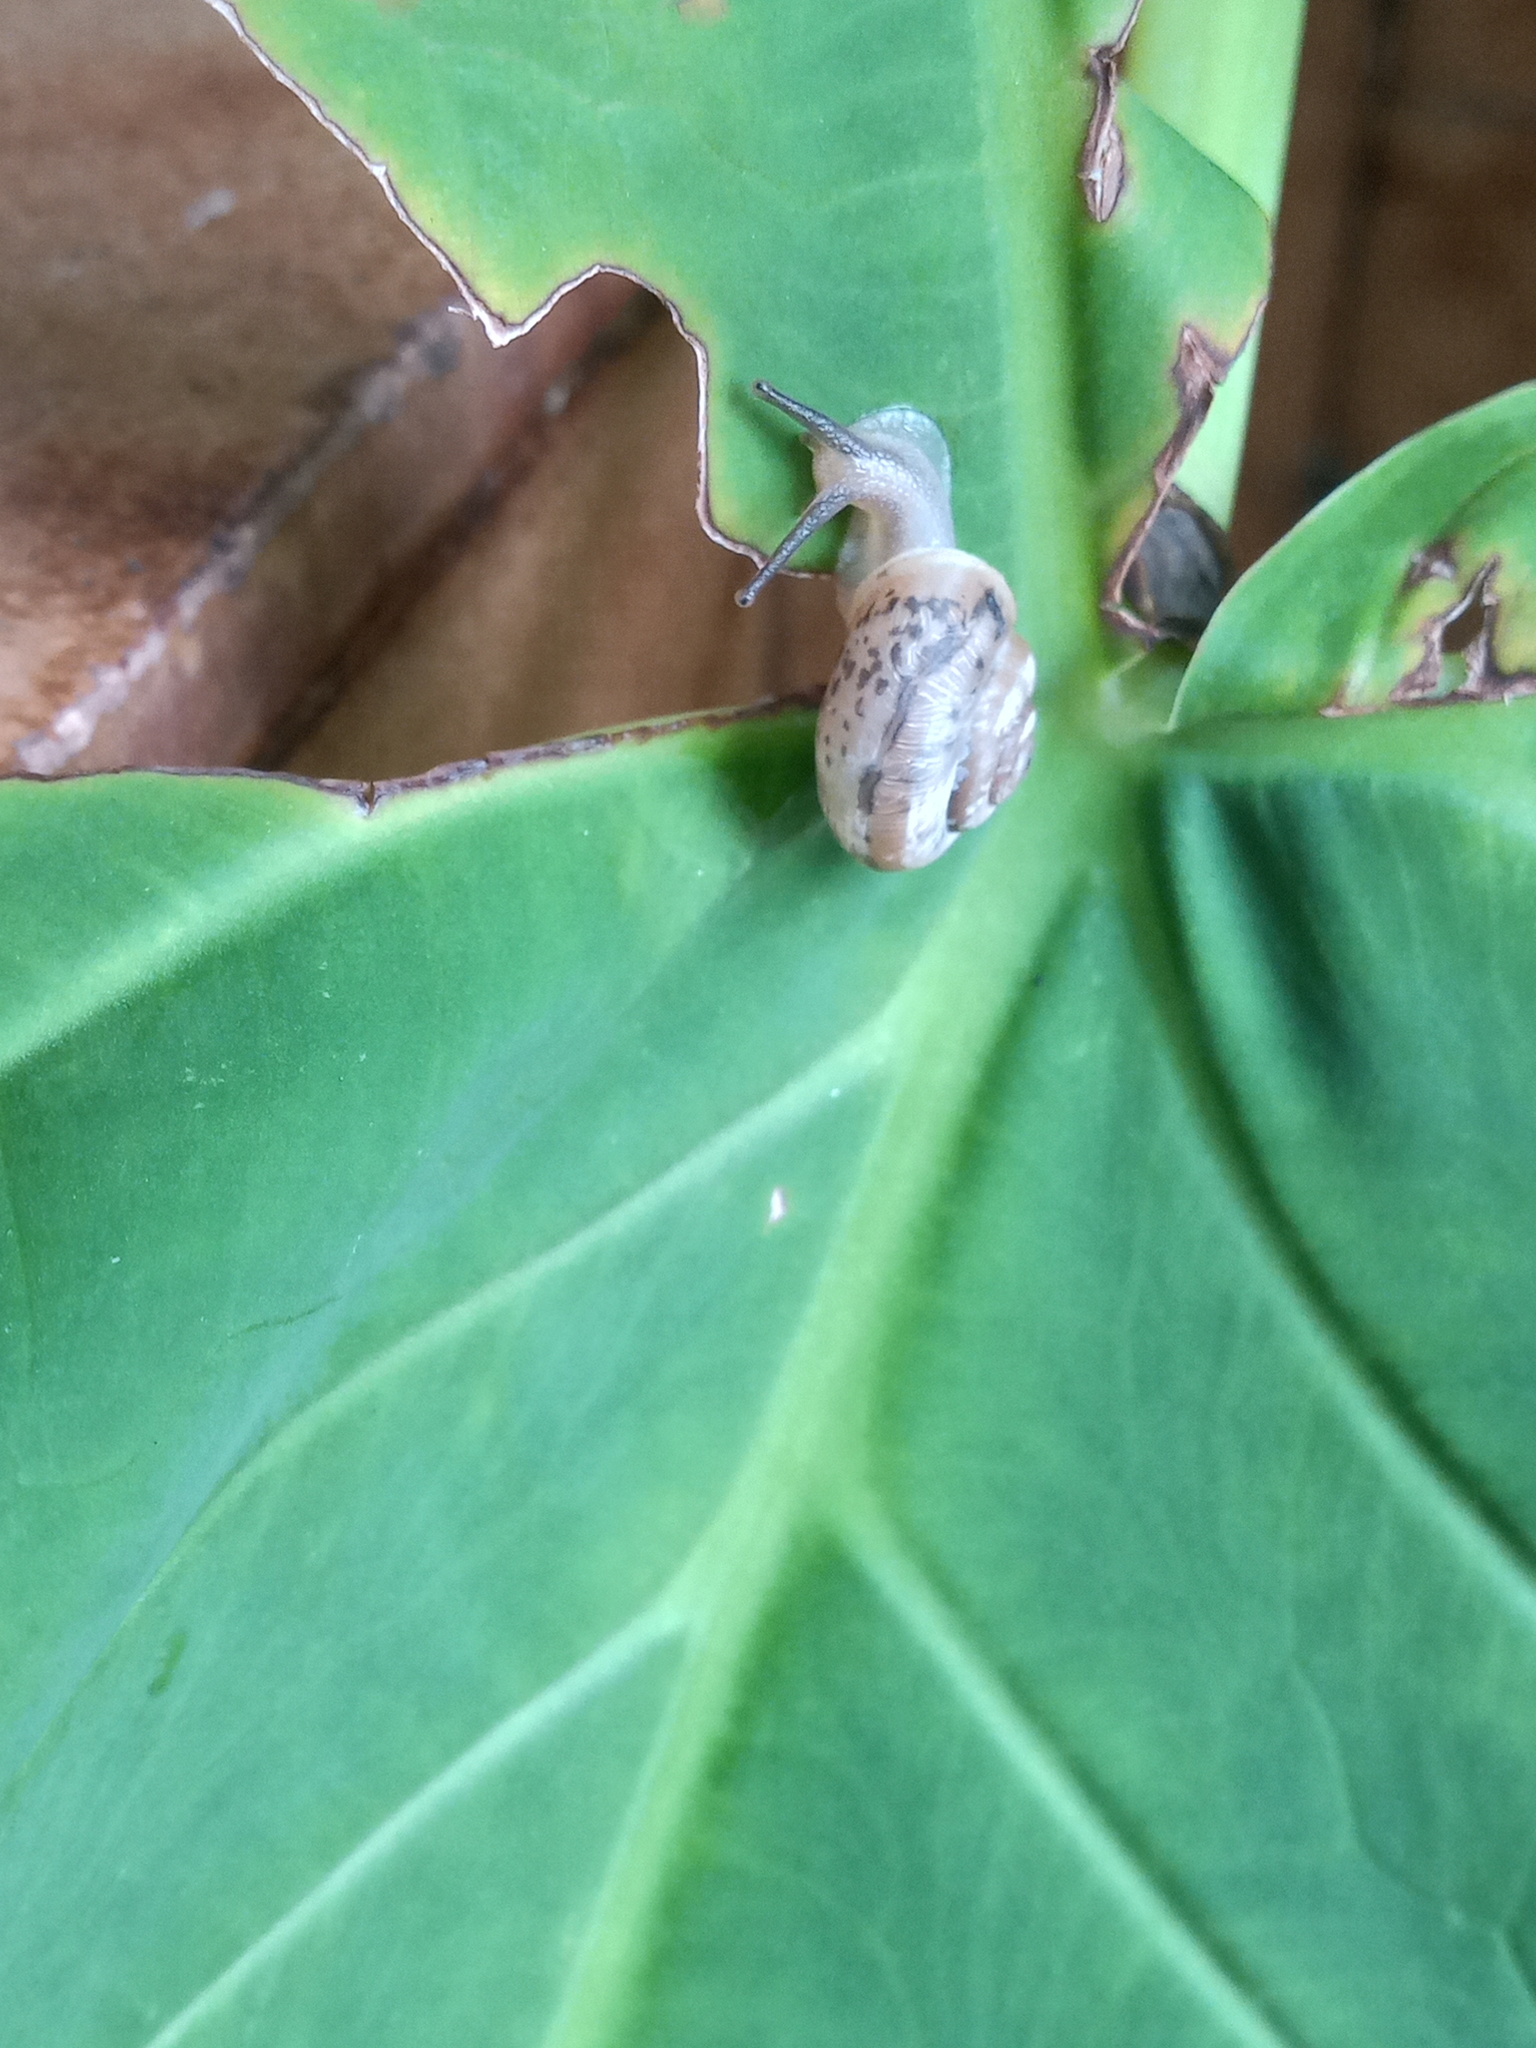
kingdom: Animalia
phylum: Mollusca
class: Gastropoda
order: Stylommatophora
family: Camaenidae
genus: Bradybaena
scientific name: Bradybaena similaris
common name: Asian trampsnail
